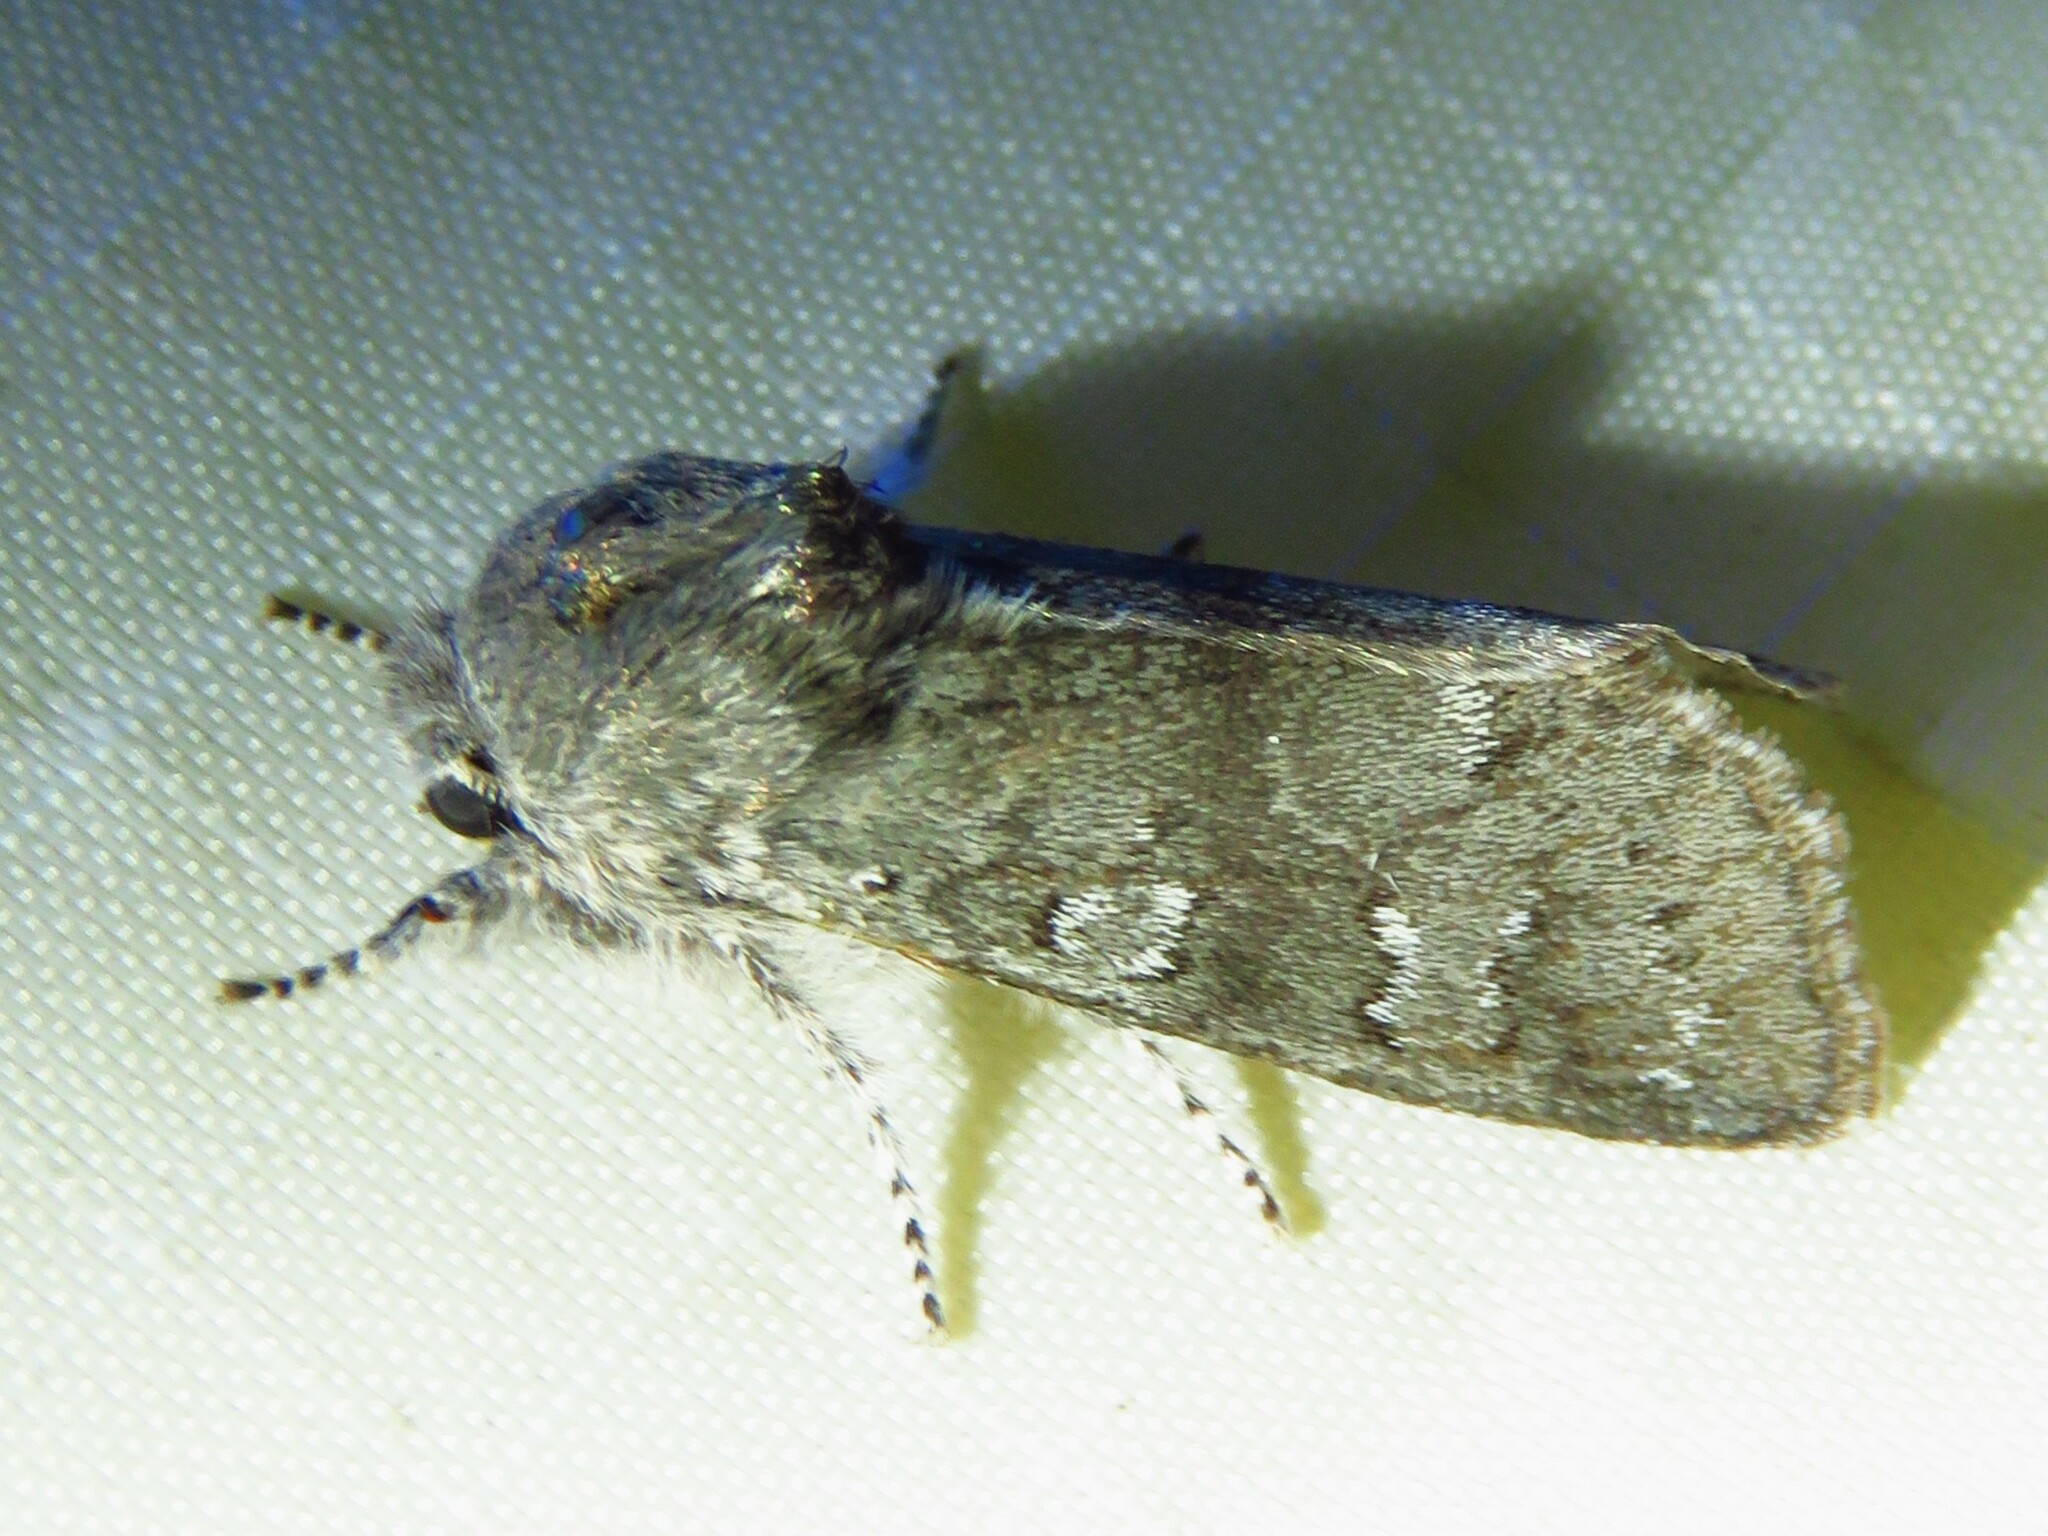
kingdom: Animalia
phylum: Arthropoda
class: Insecta
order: Lepidoptera
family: Noctuidae
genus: Psaphida
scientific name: Psaphida rolandi
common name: Roland's sallow
